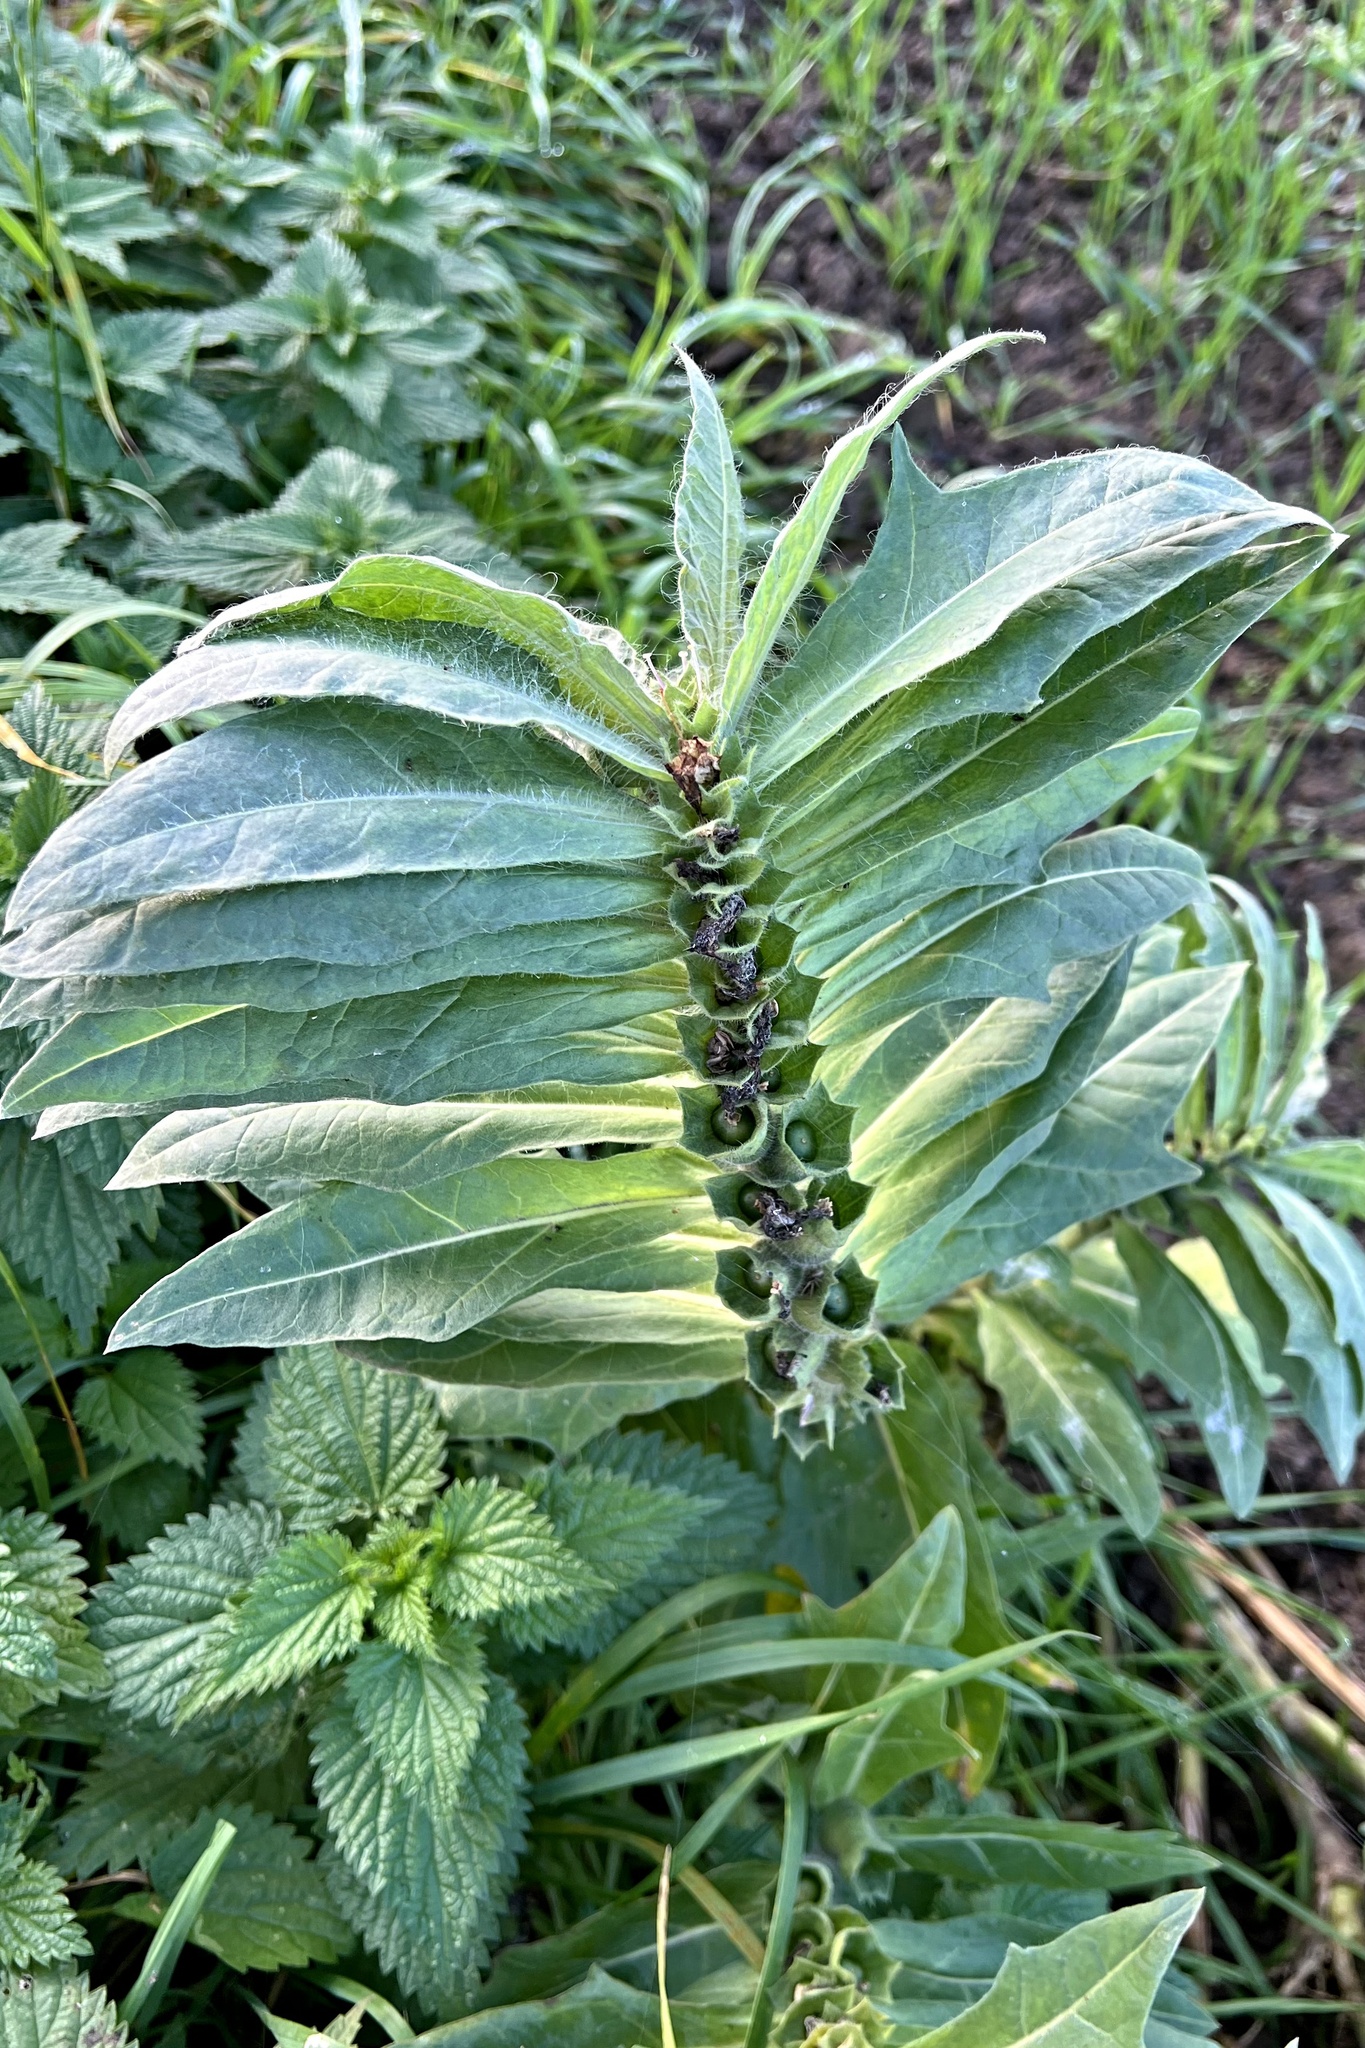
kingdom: Plantae
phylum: Tracheophyta
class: Magnoliopsida
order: Solanales
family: Solanaceae
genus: Hyoscyamus
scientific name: Hyoscyamus niger
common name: Henbane
